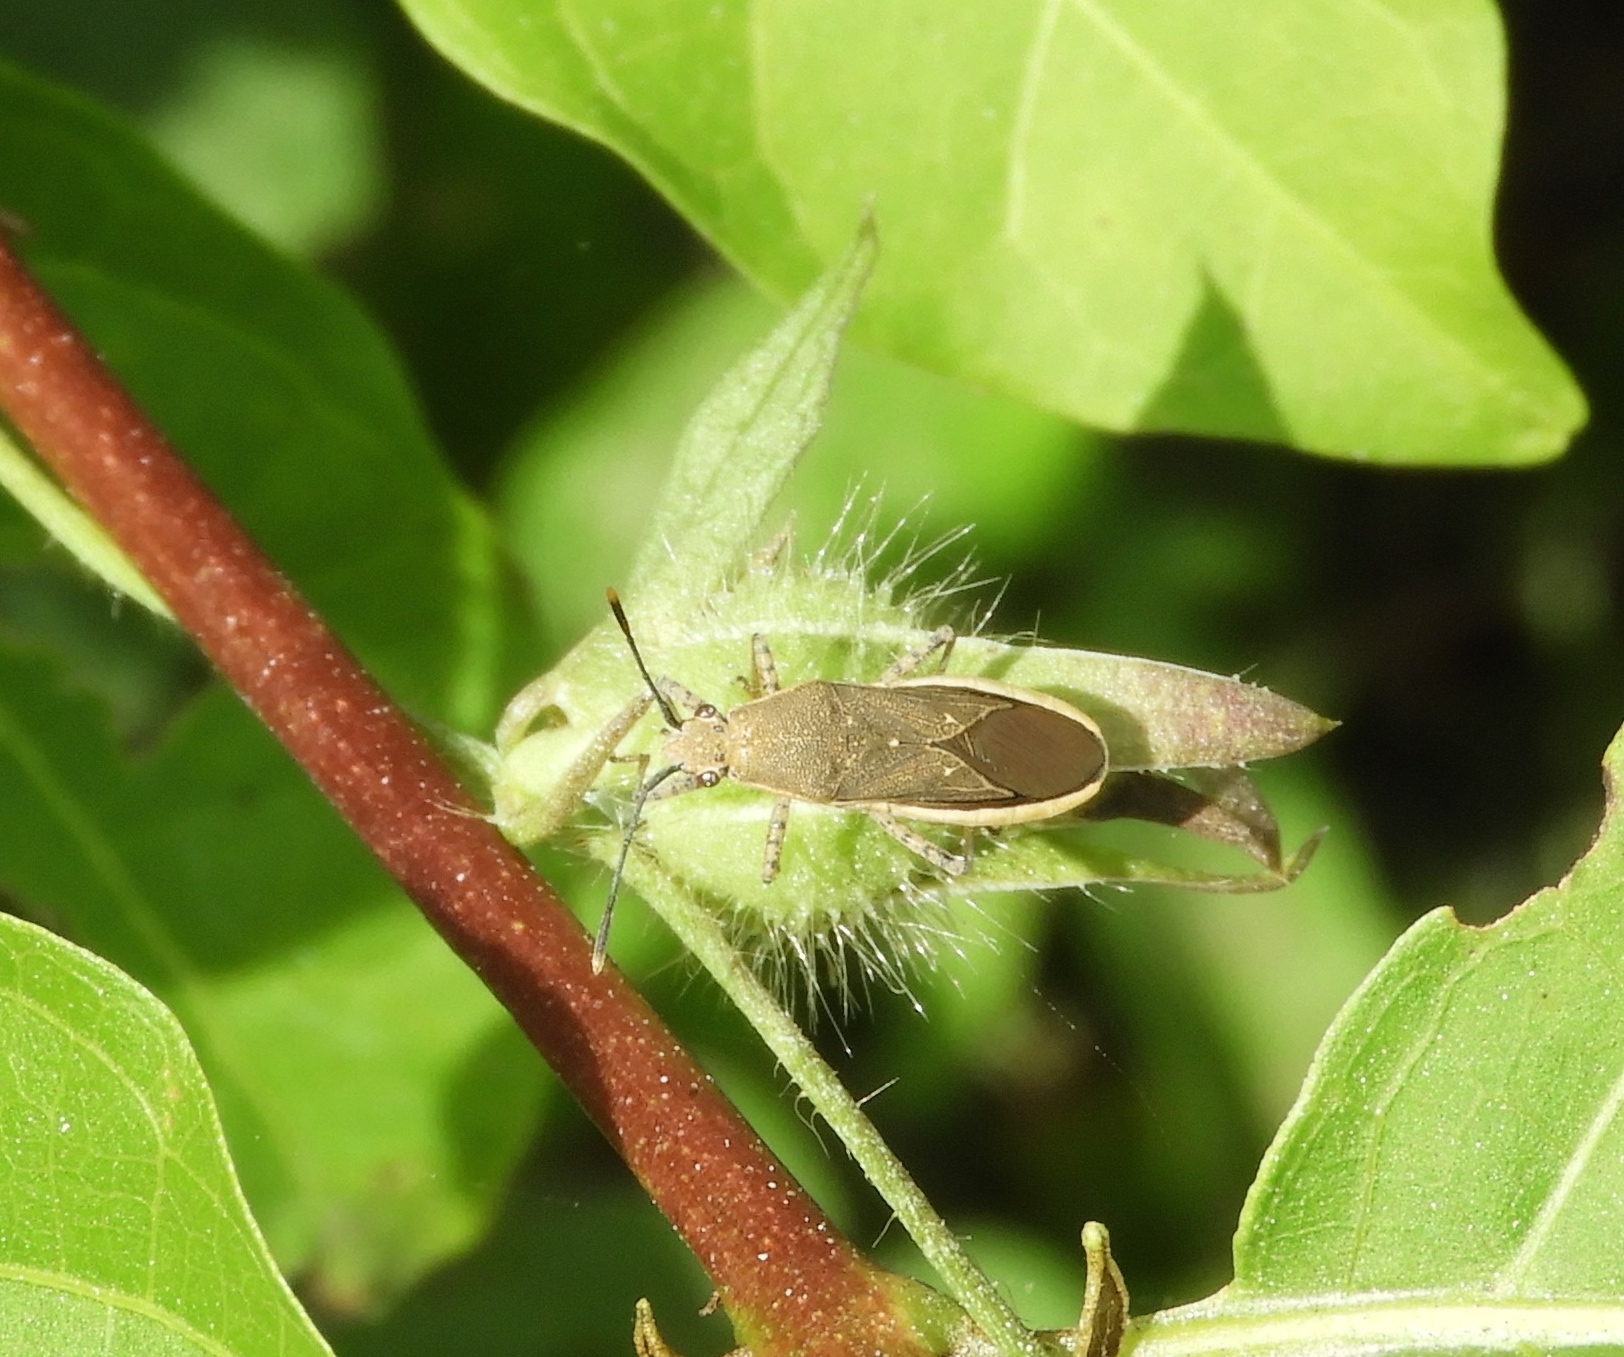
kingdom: Animalia
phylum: Arthropoda
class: Insecta
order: Hemiptera
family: Coreidae
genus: Catorhintha
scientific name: Catorhintha selector
